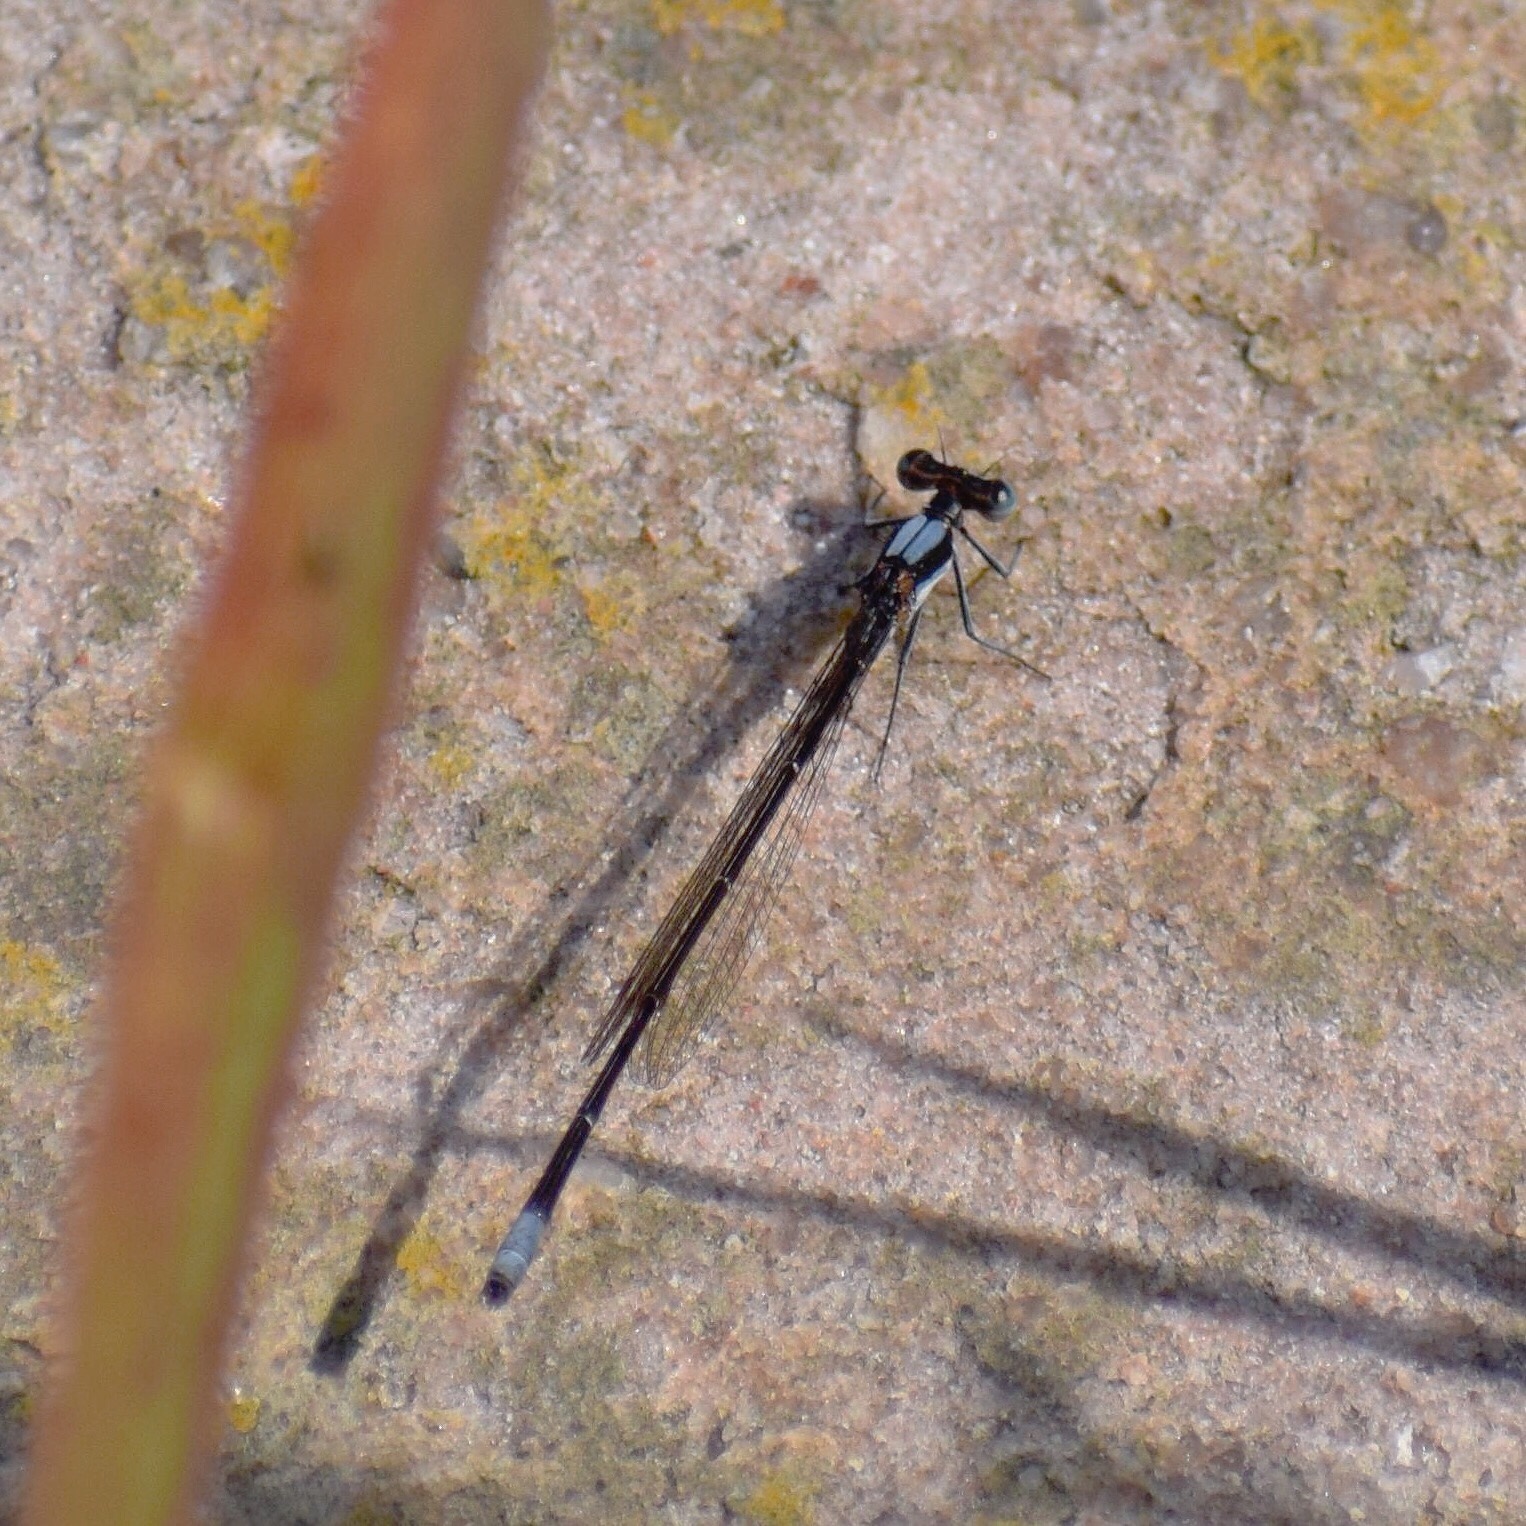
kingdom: Animalia
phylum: Arthropoda
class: Insecta
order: Odonata
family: Platycnemididae
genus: Elattoneura
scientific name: Elattoneura glauca
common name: Common threadtail
